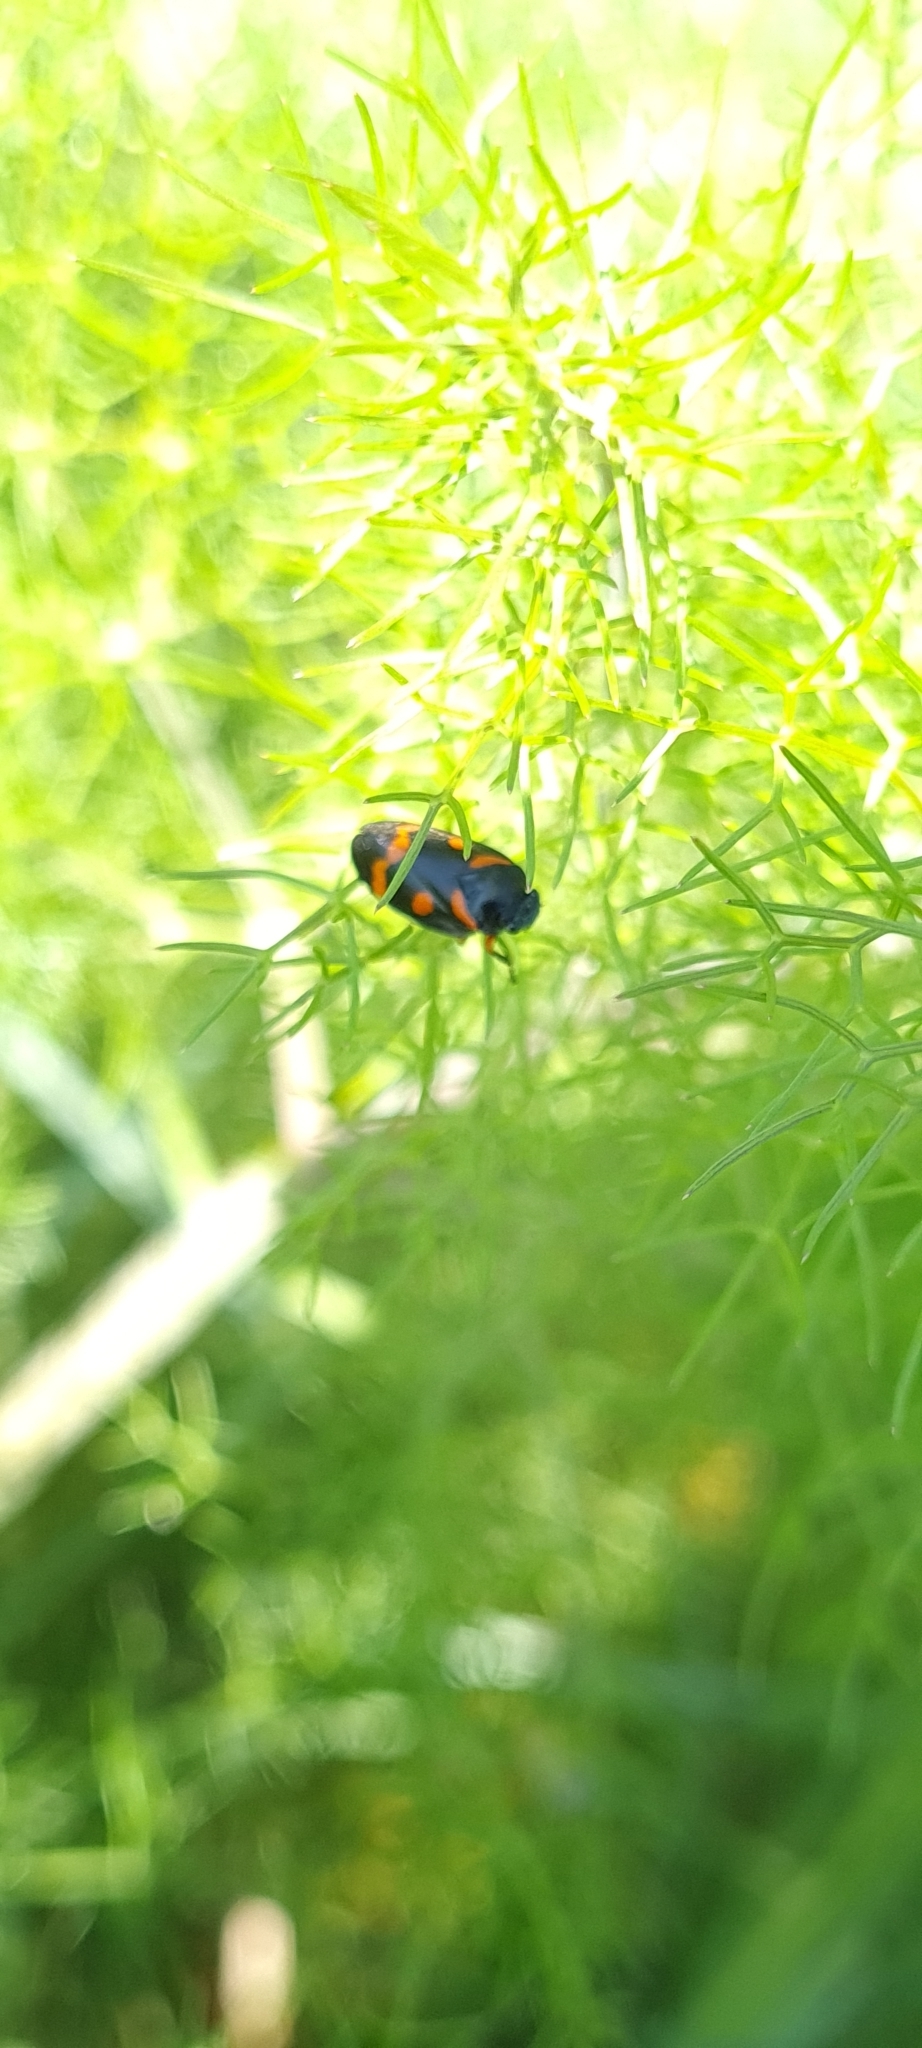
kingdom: Animalia
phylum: Arthropoda
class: Insecta
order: Hemiptera
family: Cercopidae
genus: Cercopis
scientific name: Cercopis intermedia
